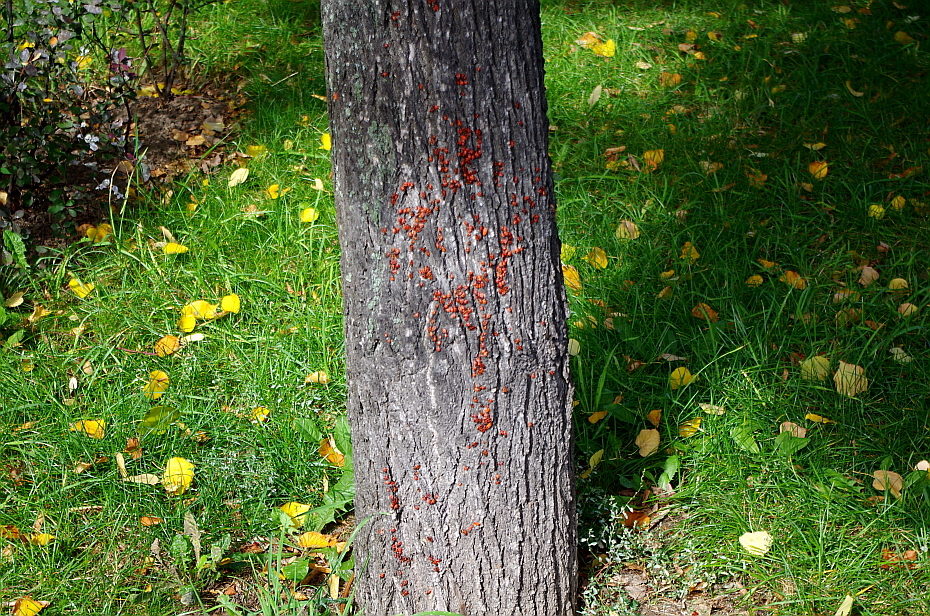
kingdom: Animalia
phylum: Arthropoda
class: Insecta
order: Hemiptera
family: Pyrrhocoridae
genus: Pyrrhocoris
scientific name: Pyrrhocoris apterus
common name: Firebug
